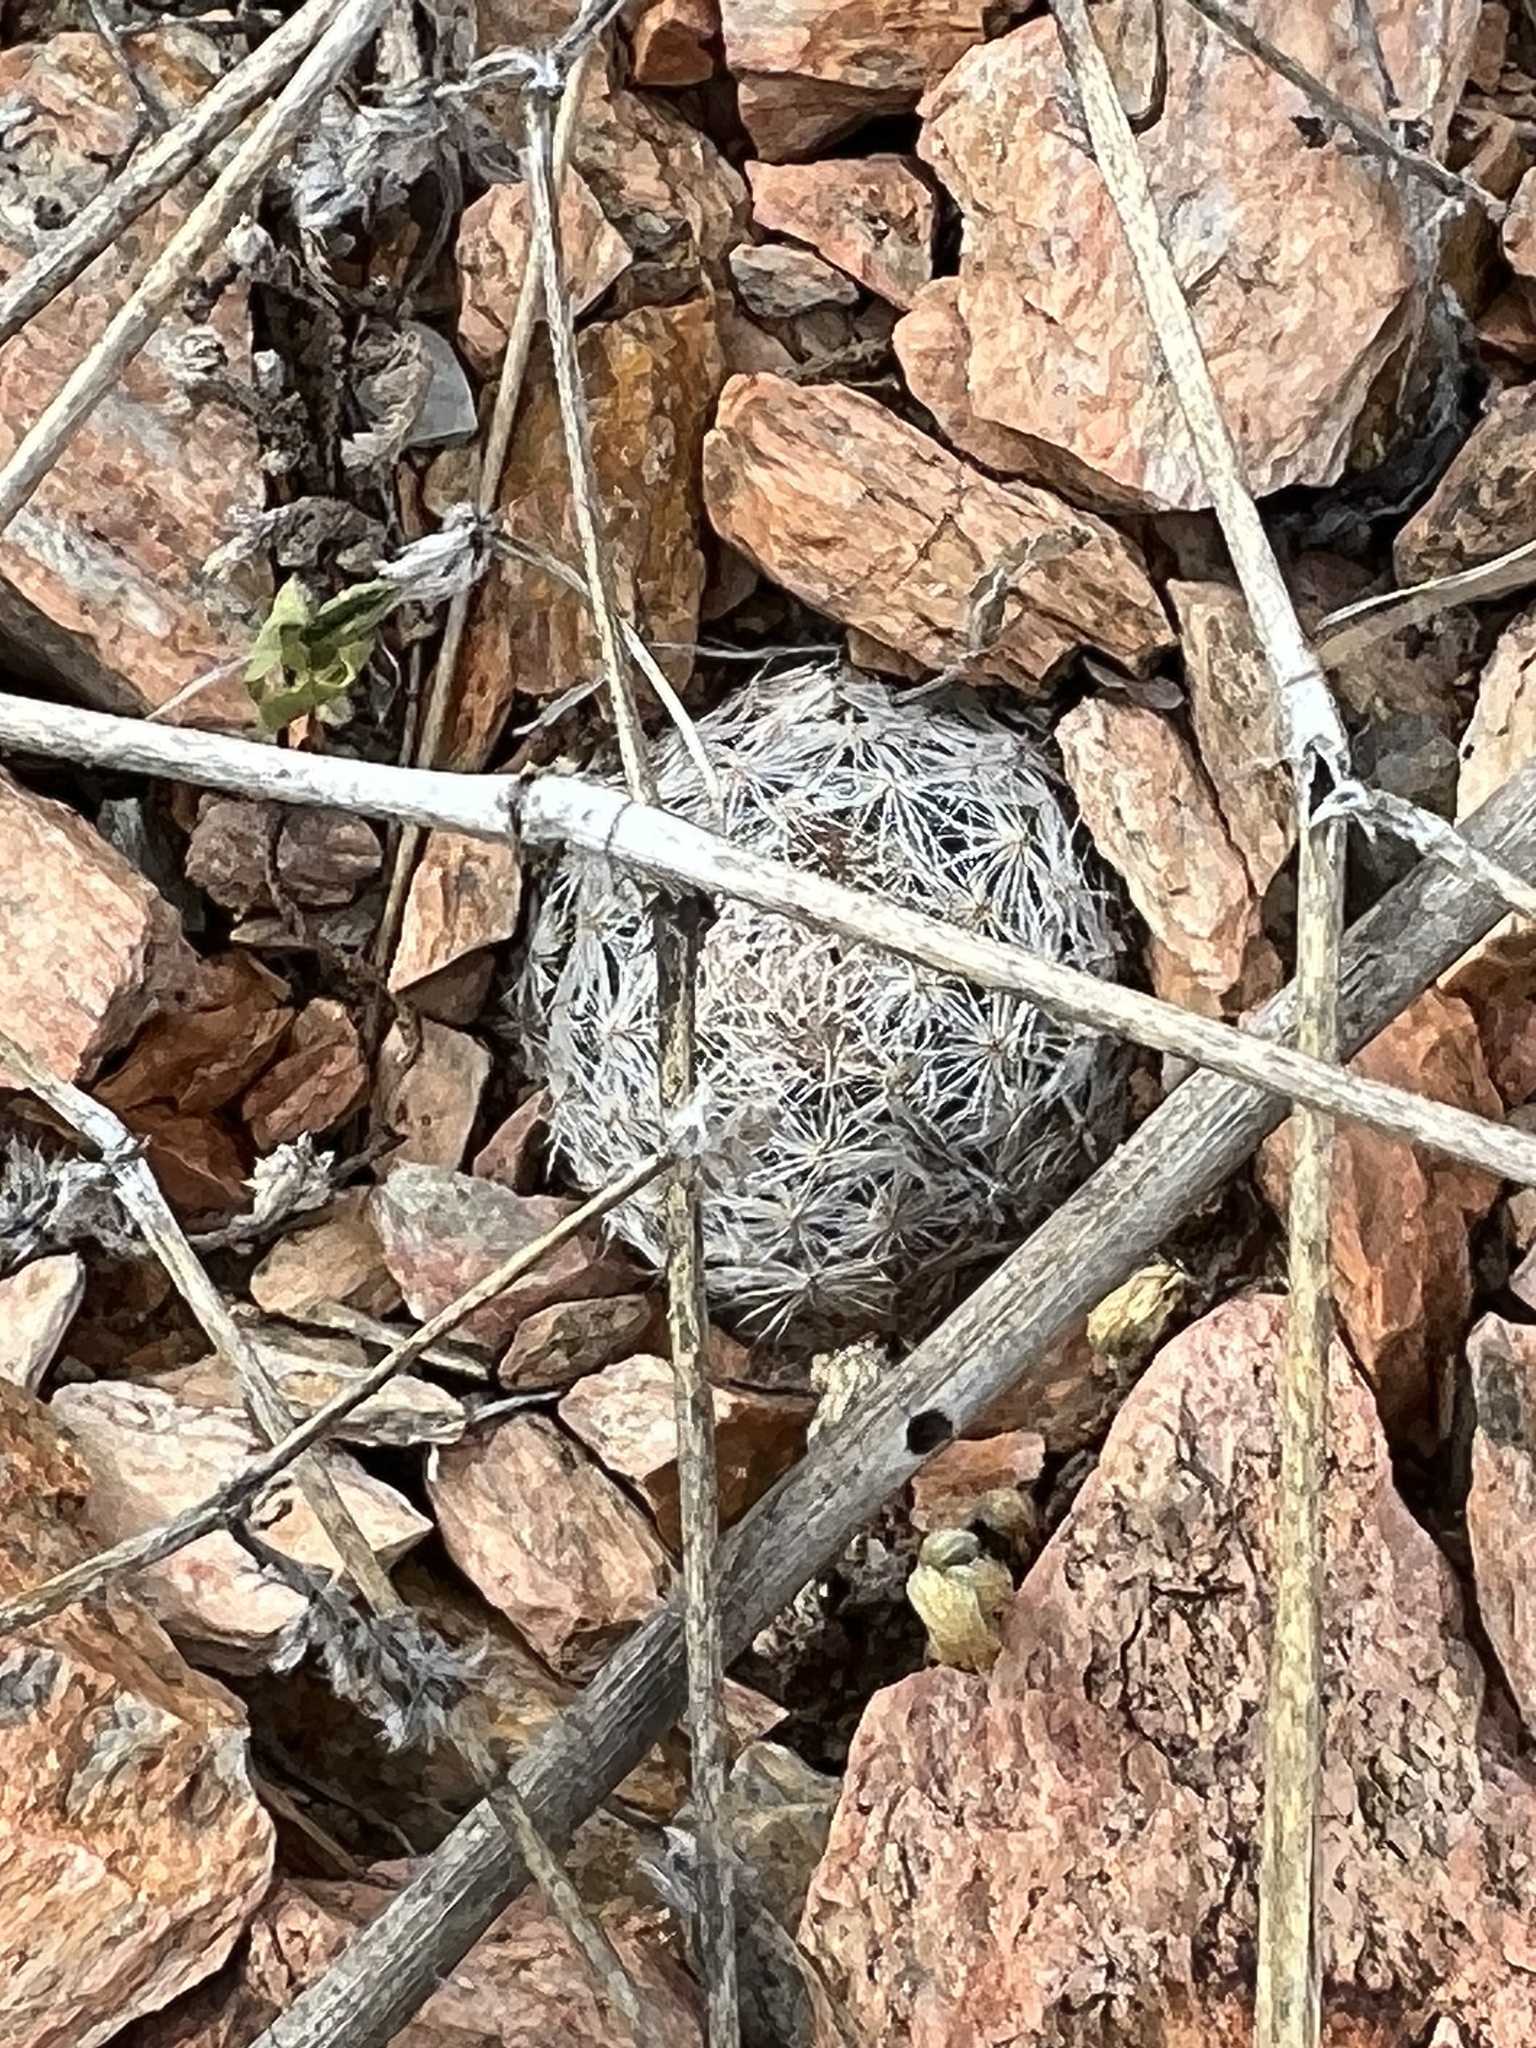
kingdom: Plantae
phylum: Tracheophyta
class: Magnoliopsida
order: Caryophyllales
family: Cactaceae
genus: Mammillaria
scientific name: Mammillaria lasiacantha
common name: Lace-spine nipple cactus
